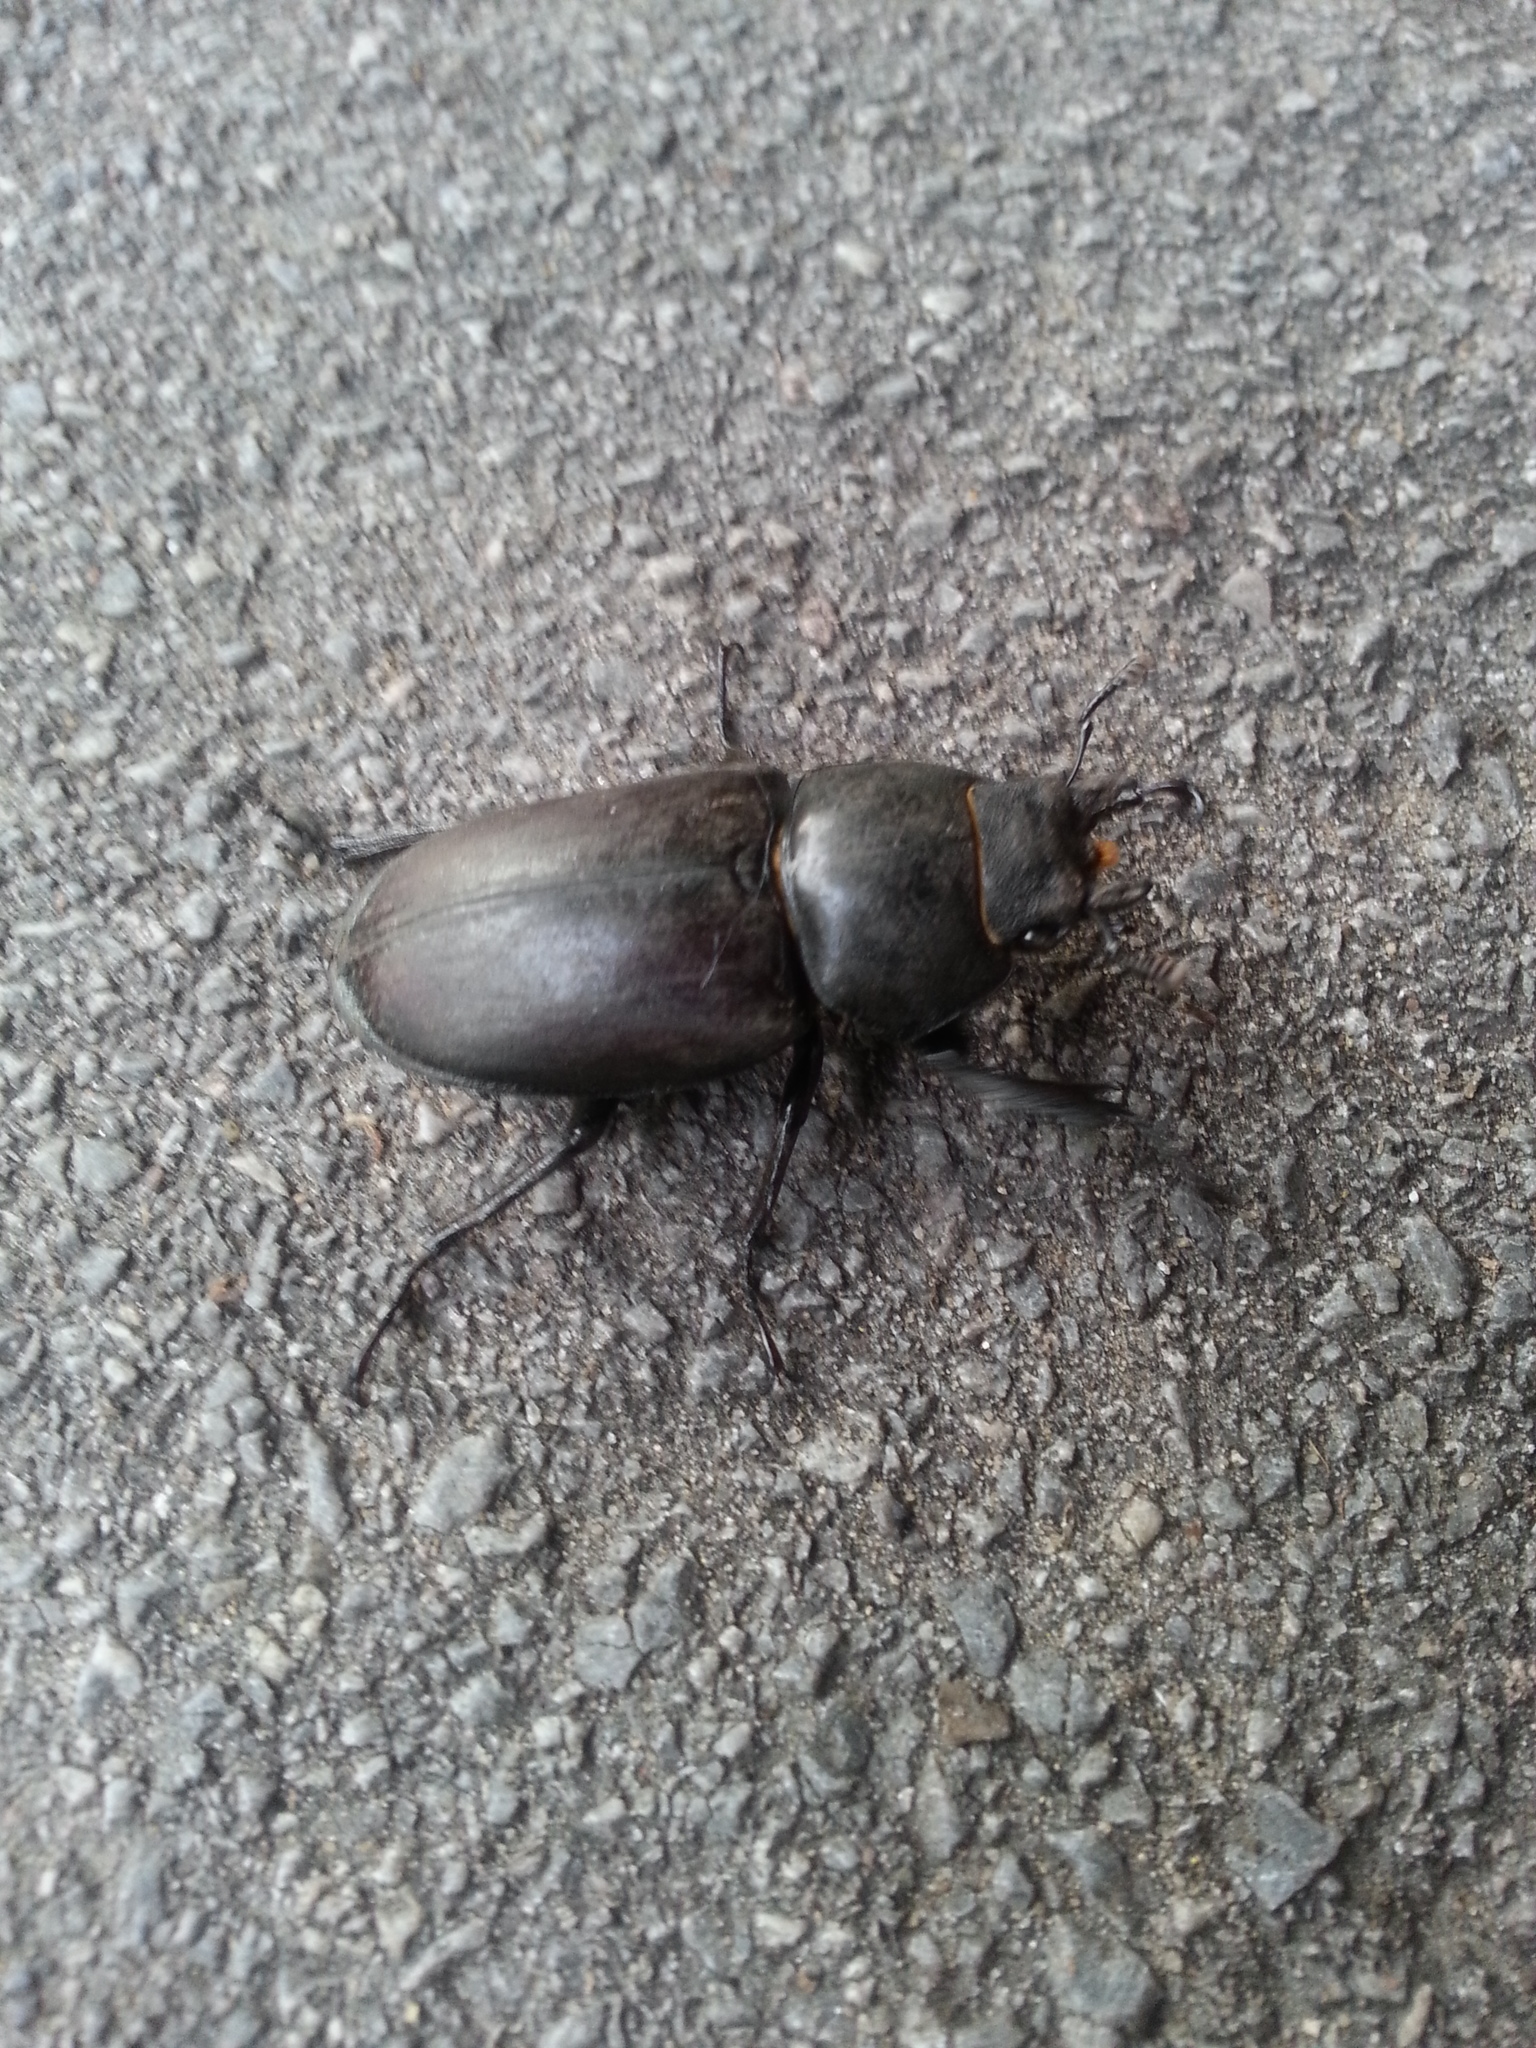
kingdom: Animalia
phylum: Arthropoda
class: Insecta
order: Coleoptera
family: Lucanidae
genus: Lucanus
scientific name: Lucanus cervus
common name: Stag beetle
